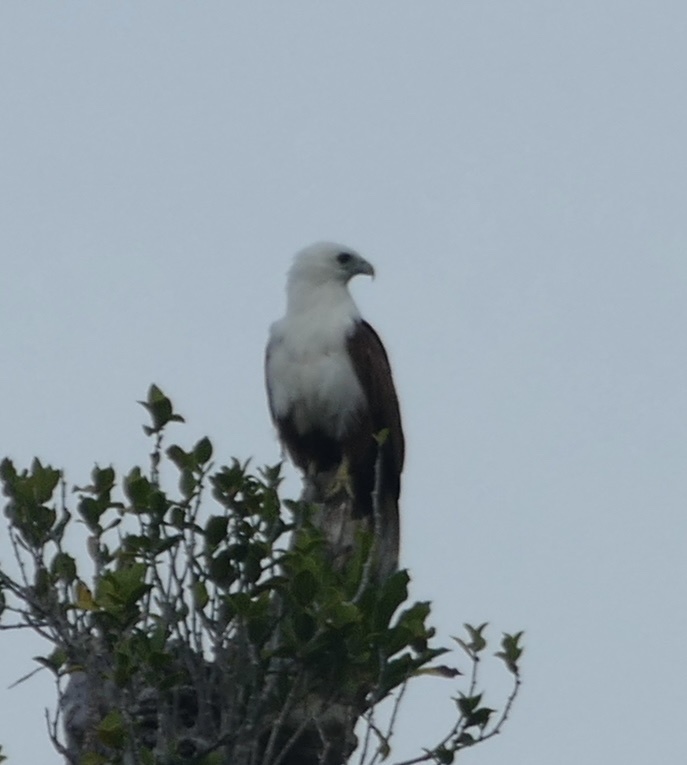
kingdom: Animalia
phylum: Chordata
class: Aves
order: Accipitriformes
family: Accipitridae
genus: Haliastur
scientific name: Haliastur indus
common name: Brahminy kite
